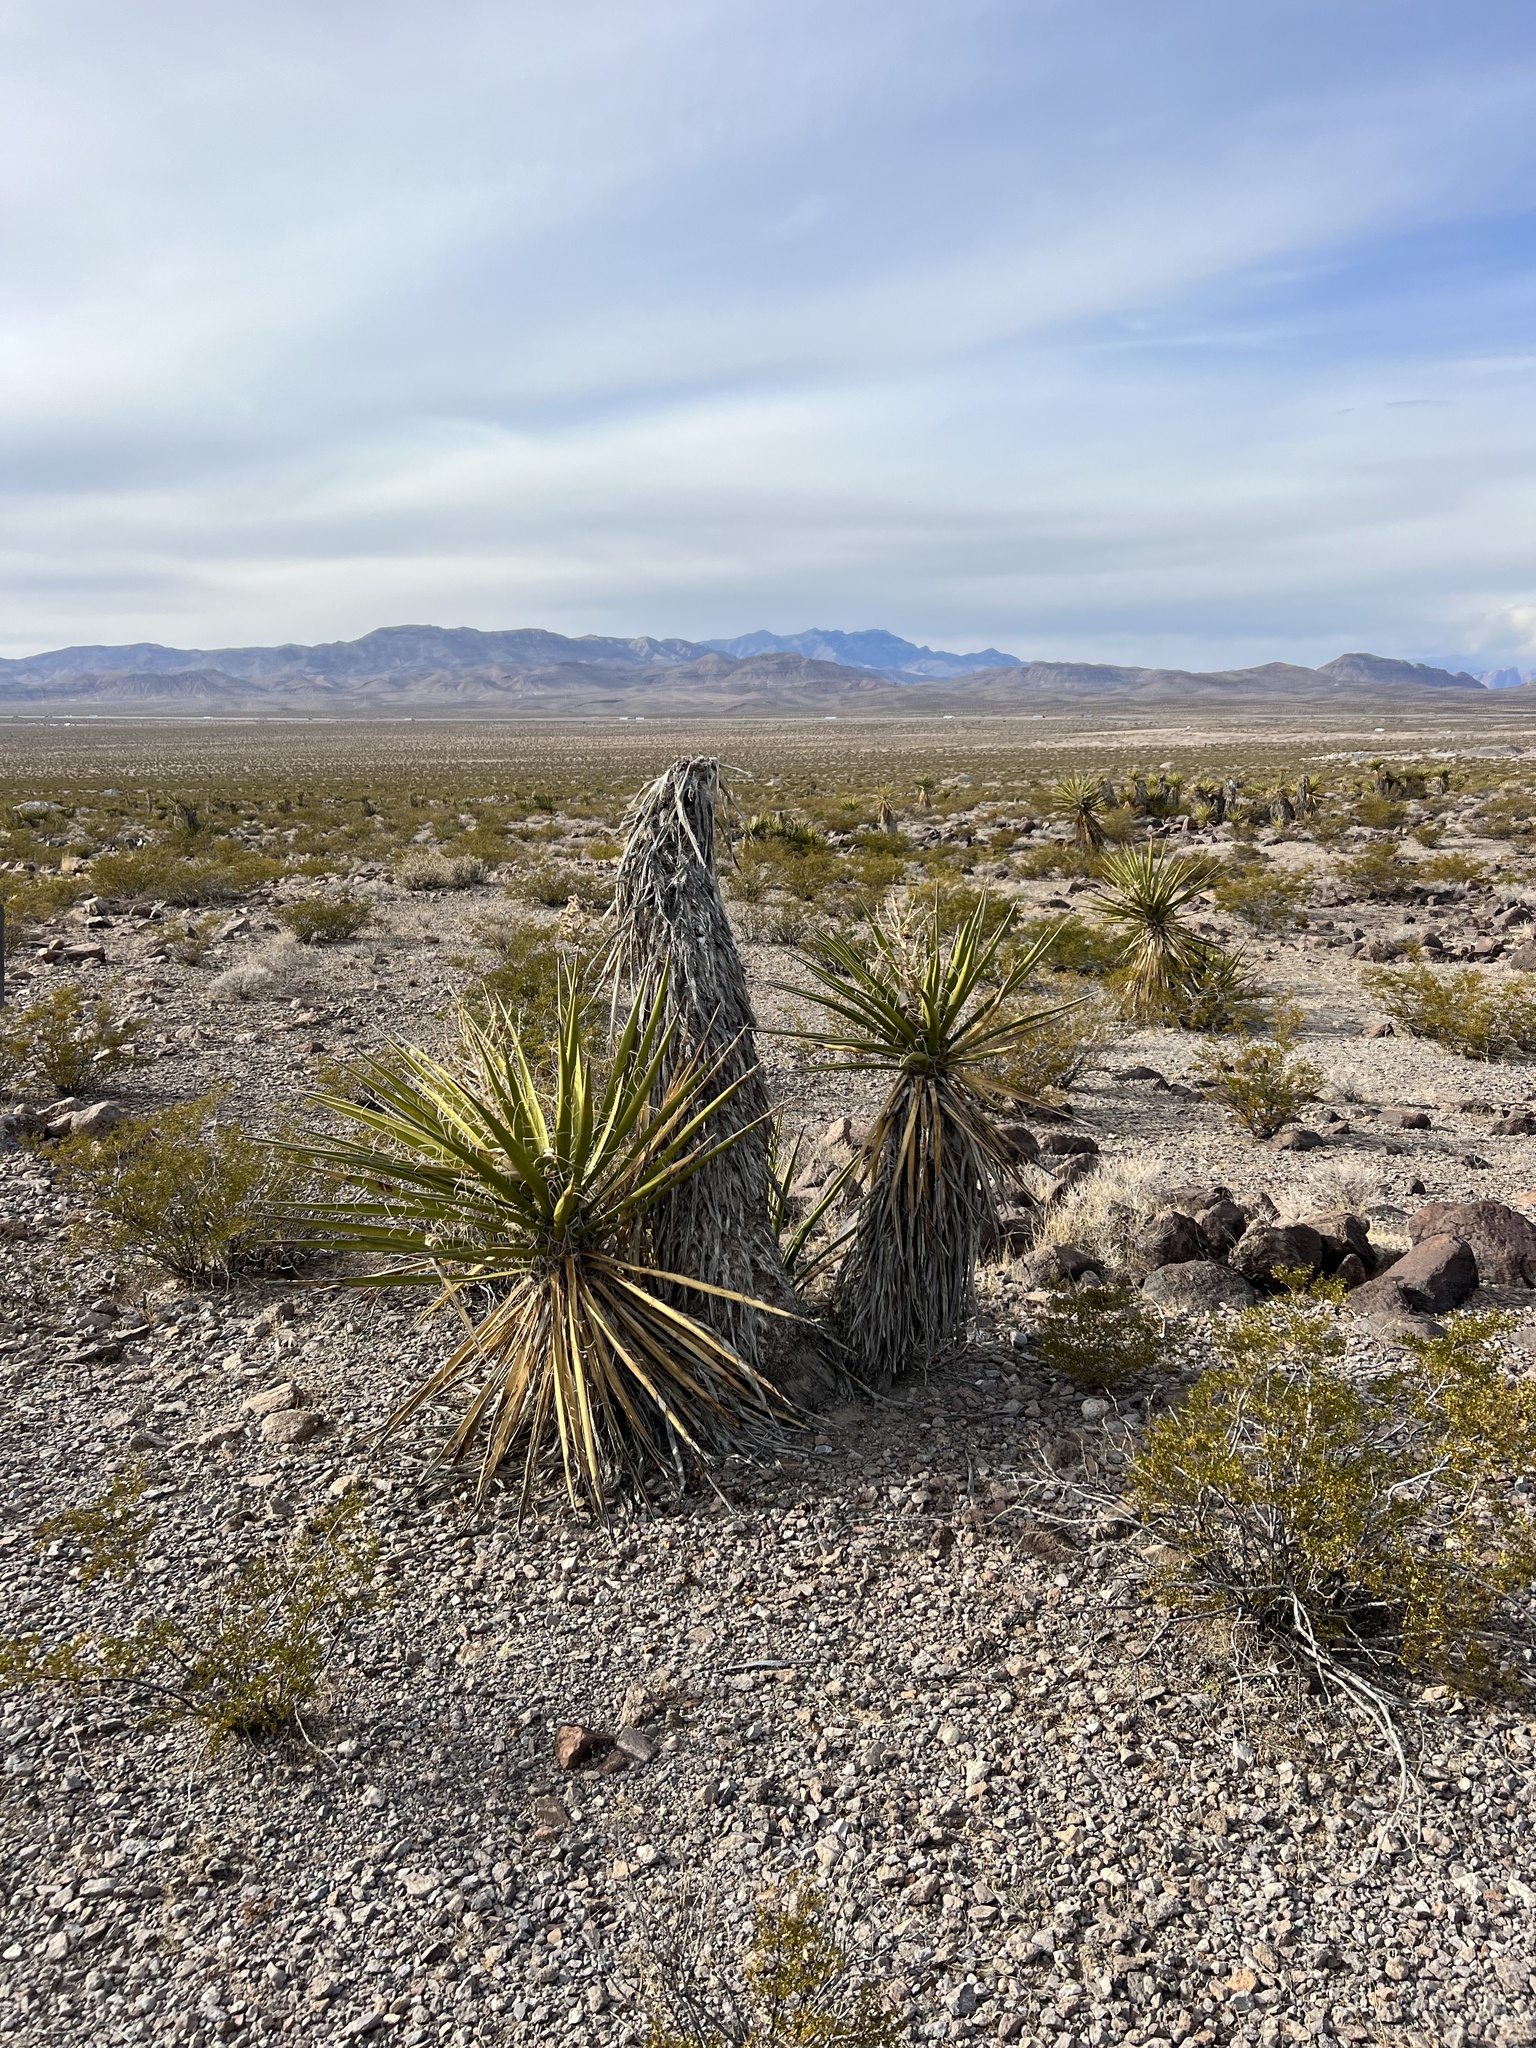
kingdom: Plantae
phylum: Tracheophyta
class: Liliopsida
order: Asparagales
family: Asparagaceae
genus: Yucca
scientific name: Yucca schidigera
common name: Mojave yucca
